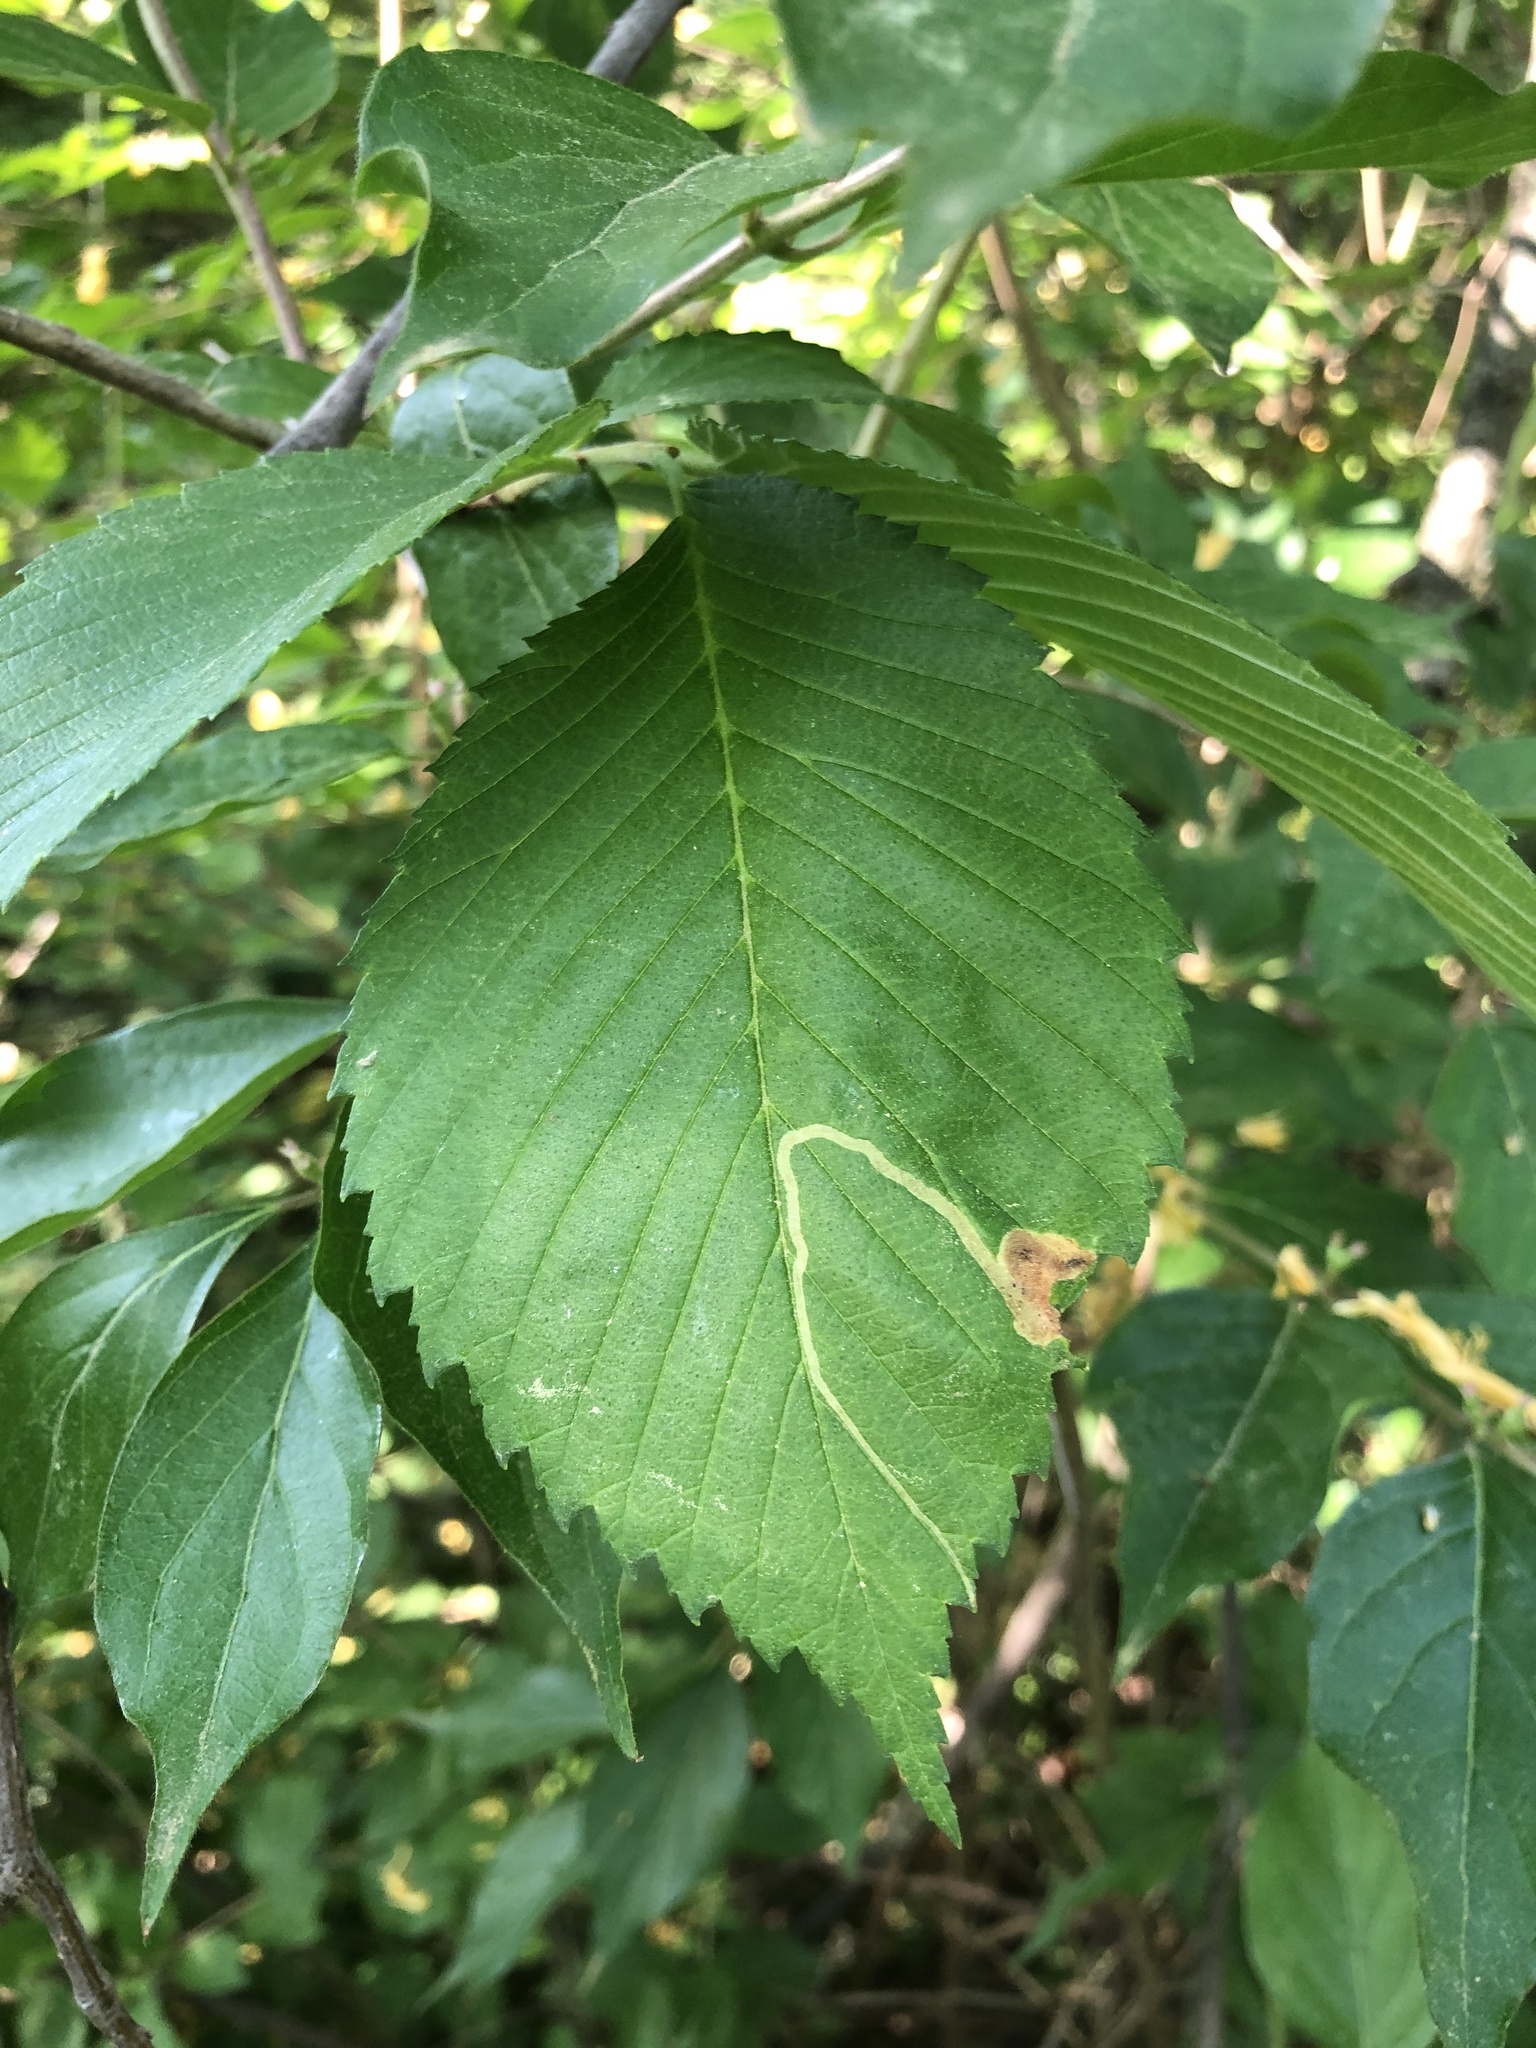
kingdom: Animalia
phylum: Arthropoda
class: Insecta
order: Diptera
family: Agromyzidae
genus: Agromyza
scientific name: Agromyza aristata
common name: Elm agromyzid leafminer
